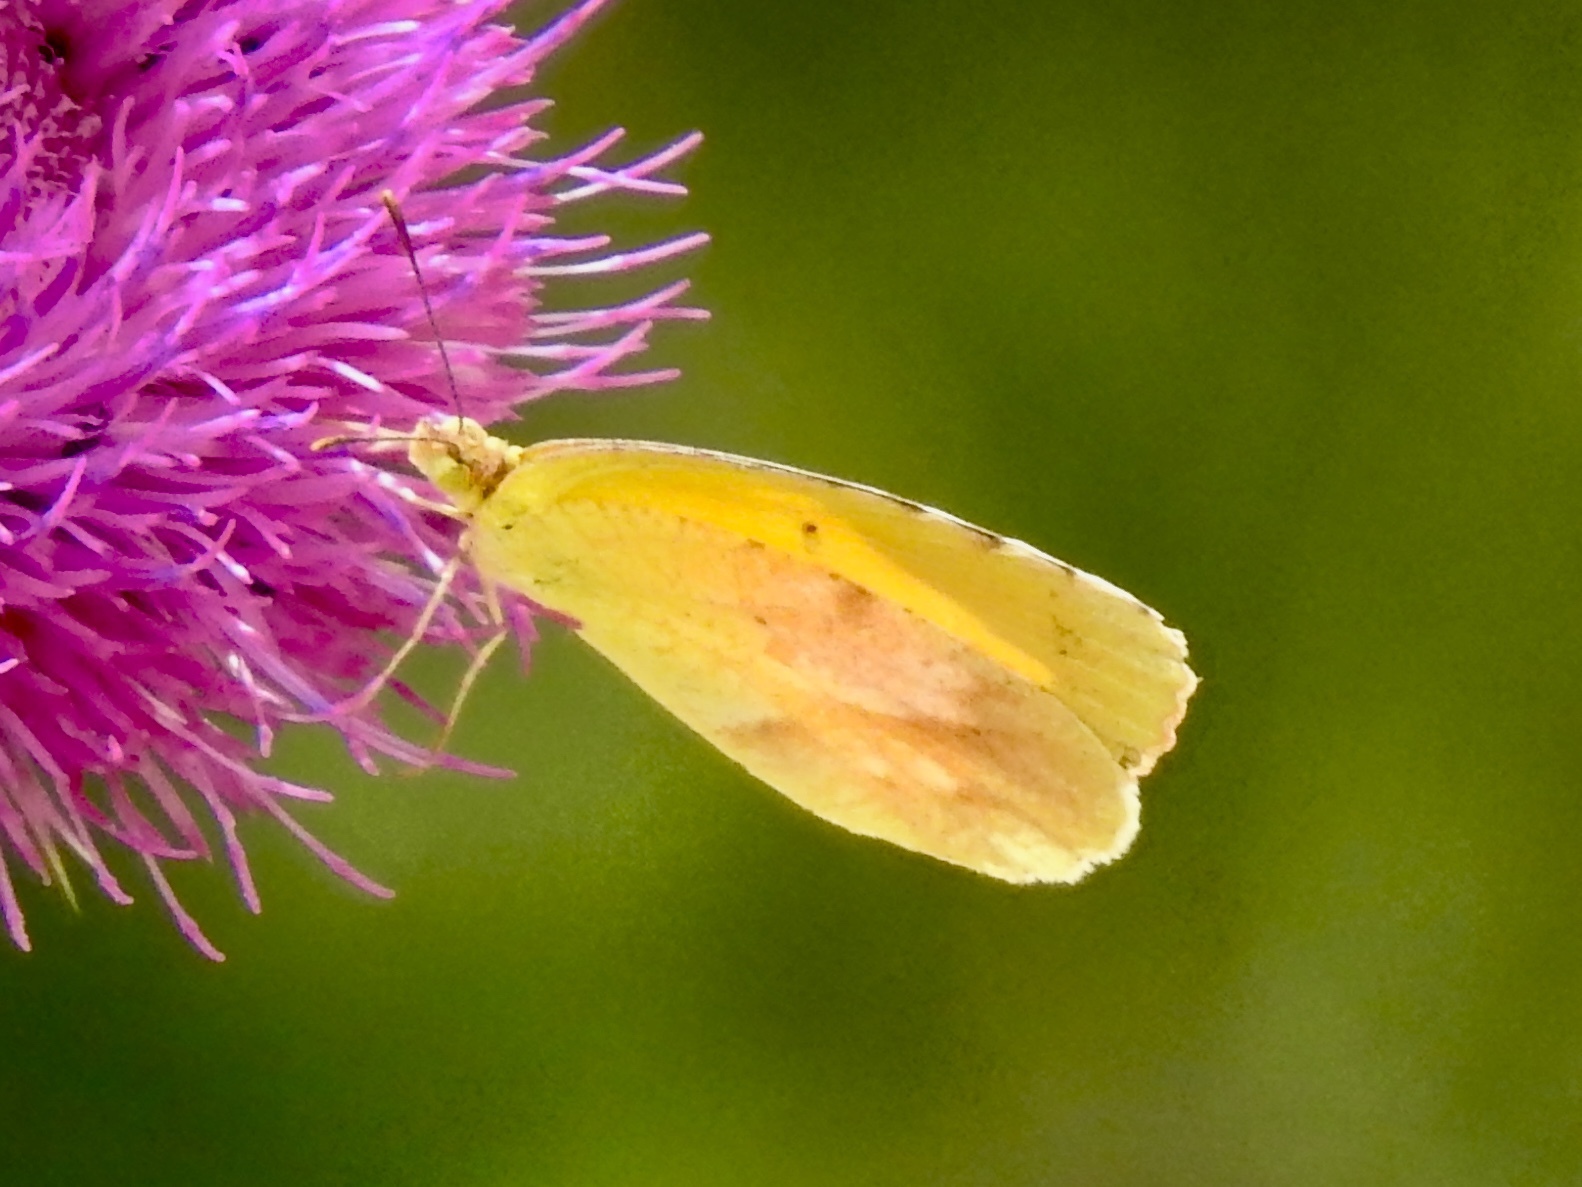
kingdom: Animalia
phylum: Arthropoda
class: Insecta
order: Lepidoptera
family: Pieridae
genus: Abaeis
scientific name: Abaeis nicippe
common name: Sleepy orange
